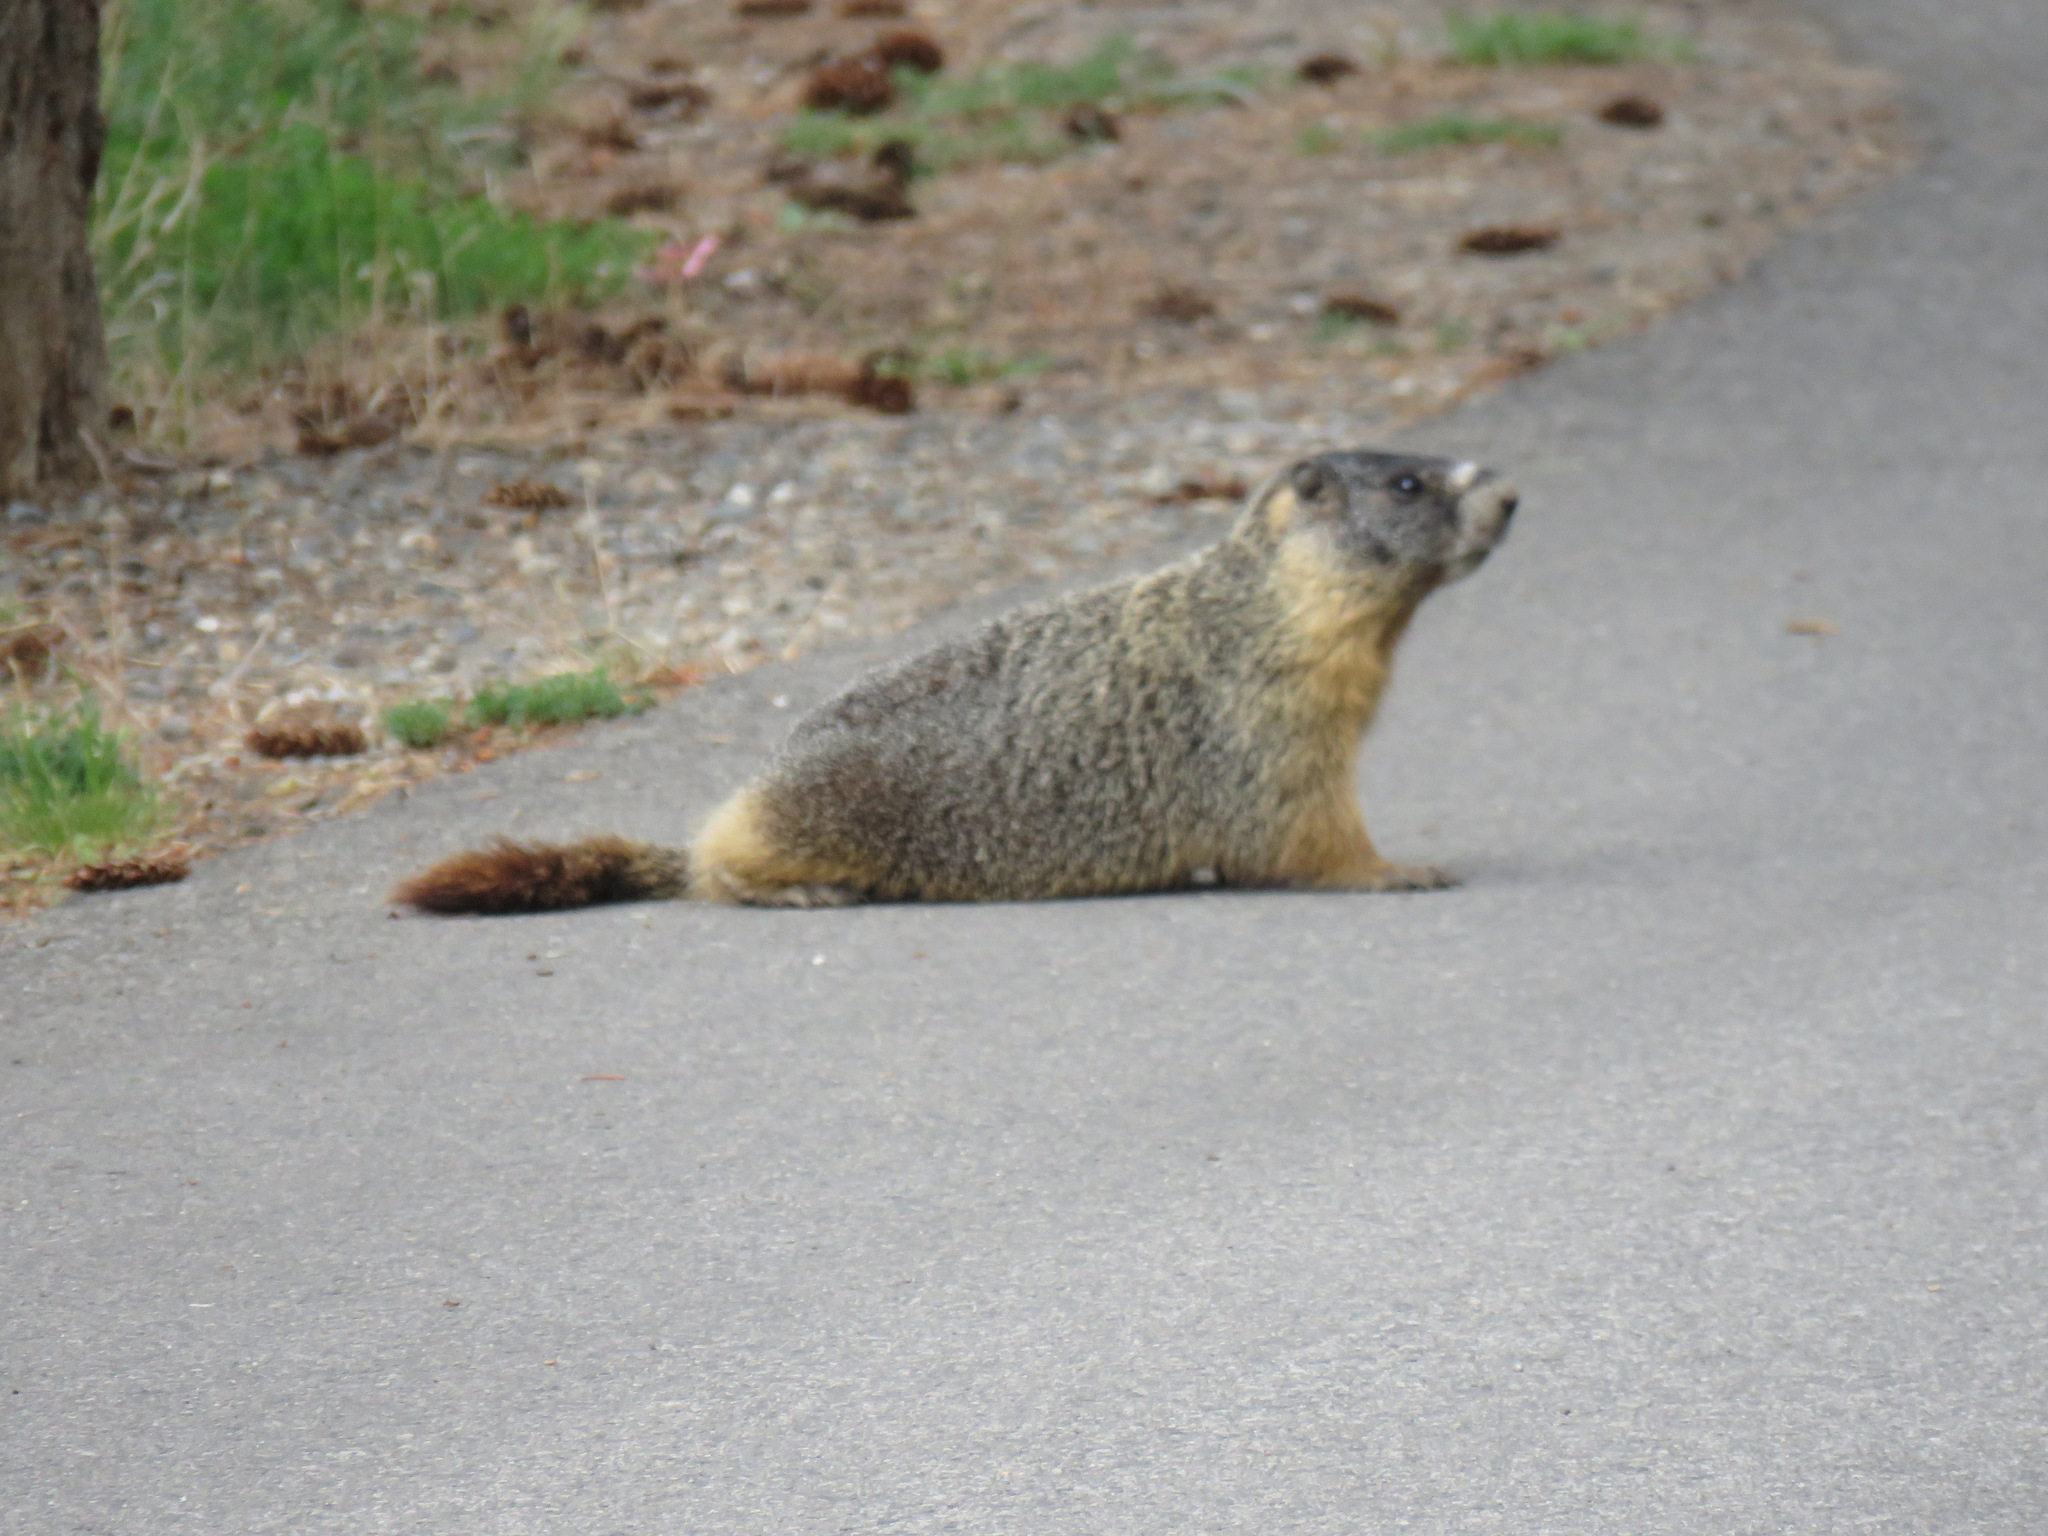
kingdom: Animalia
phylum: Chordata
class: Mammalia
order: Rodentia
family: Sciuridae
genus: Marmota
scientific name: Marmota flaviventris
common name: Yellow-bellied marmot
